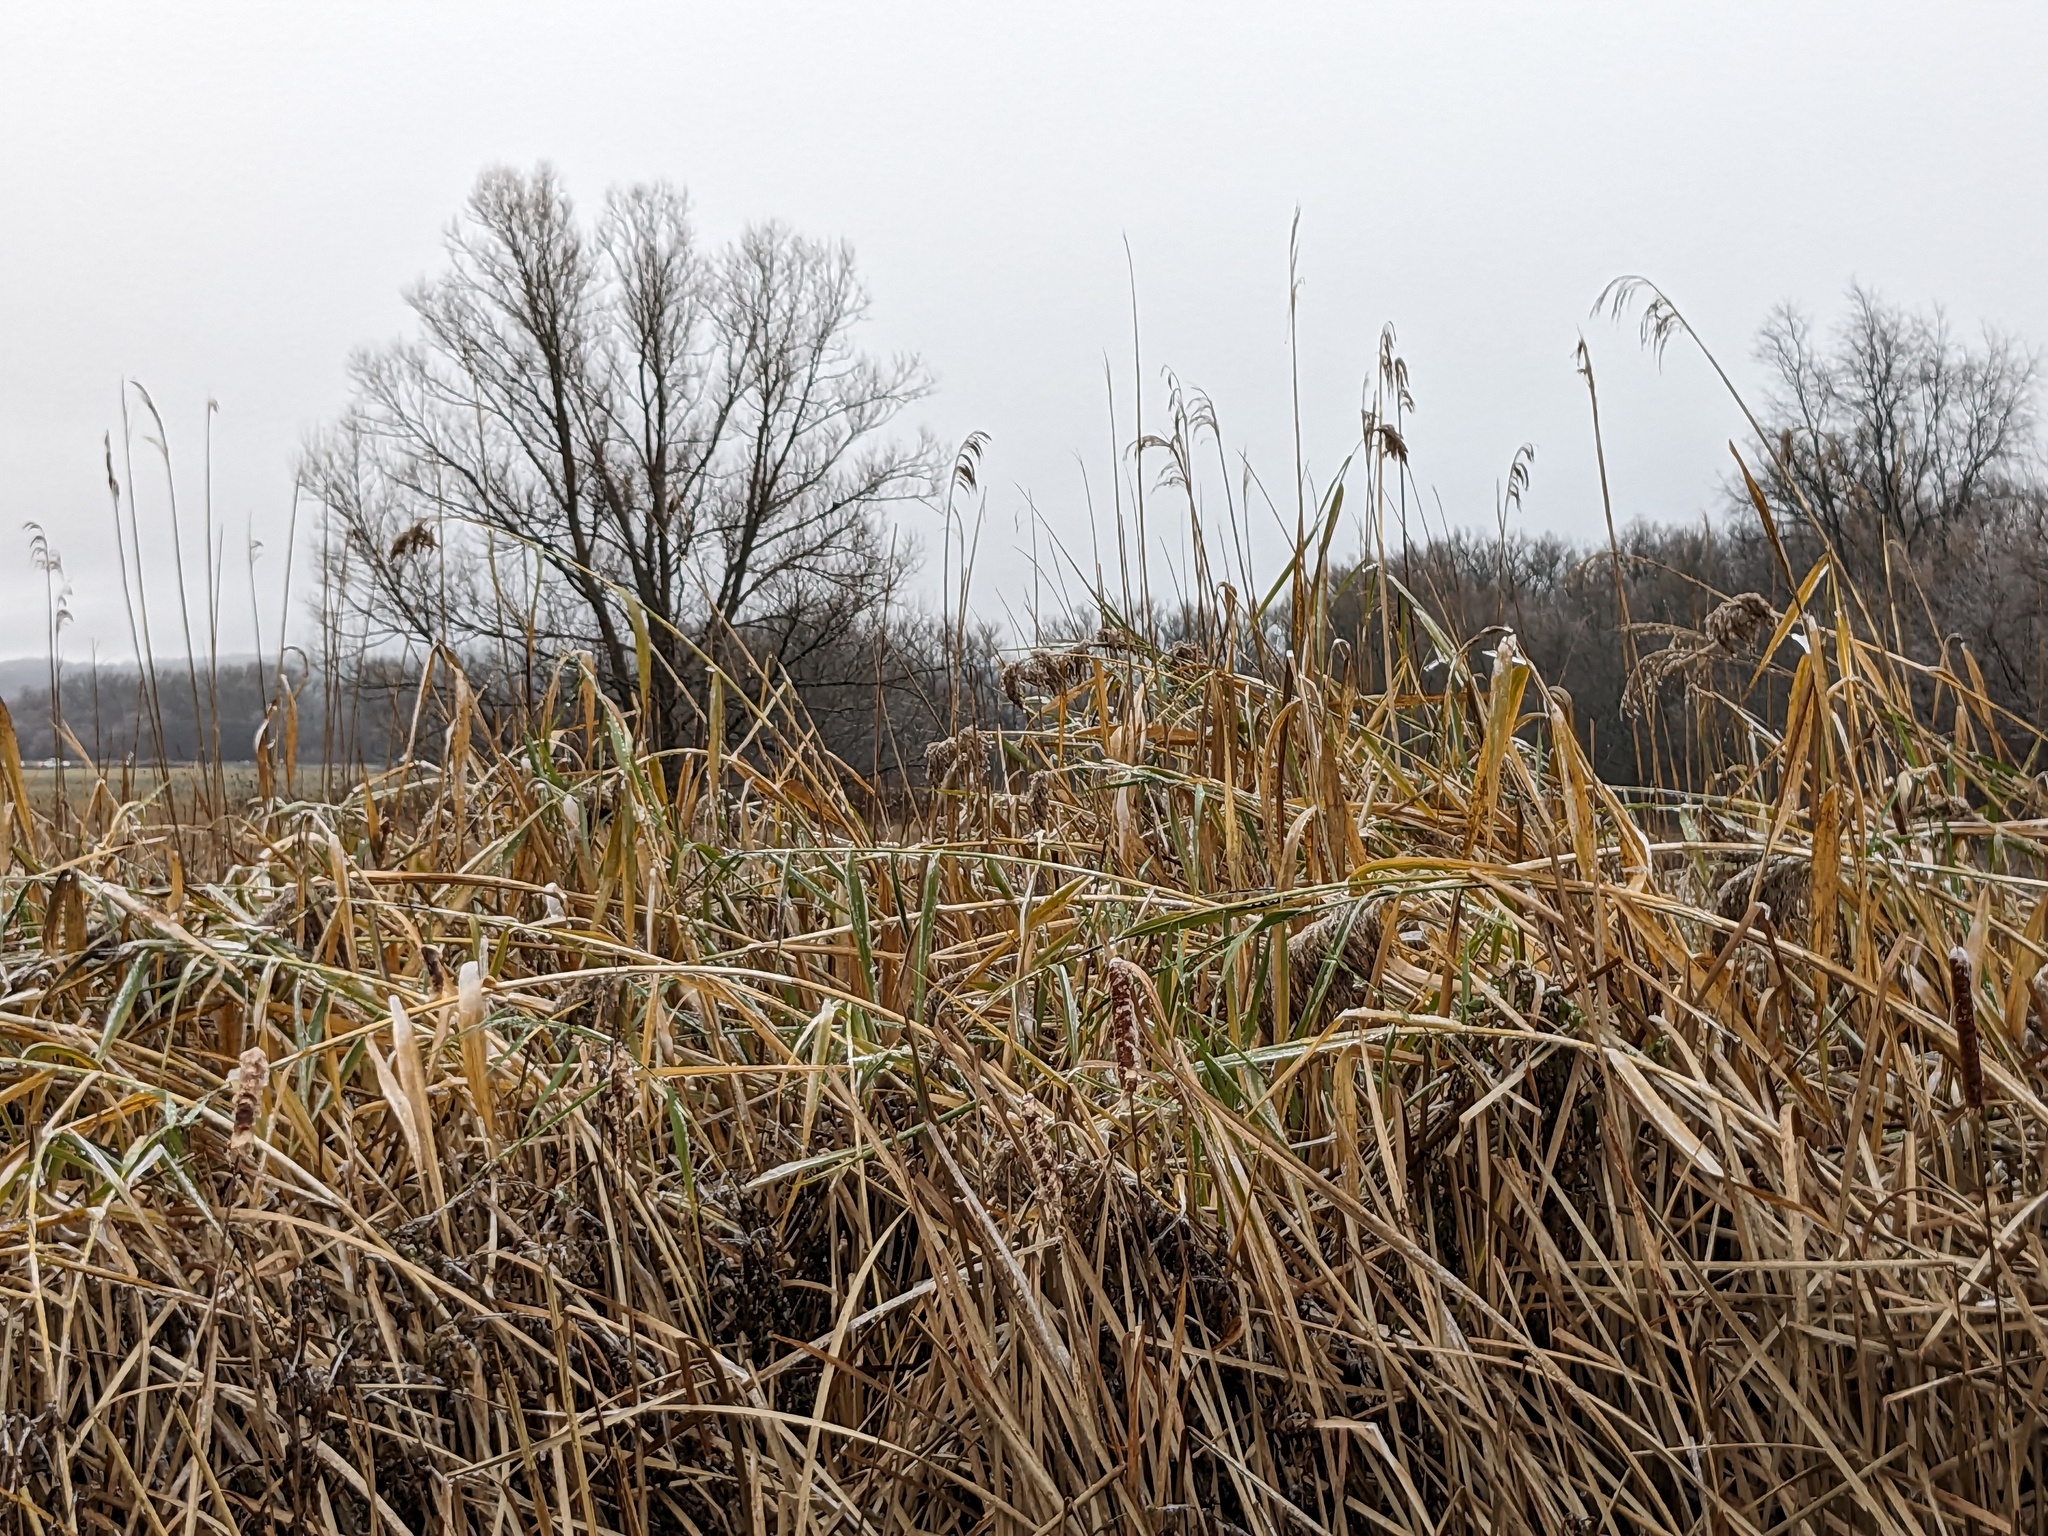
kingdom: Plantae
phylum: Tracheophyta
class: Liliopsida
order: Poales
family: Poaceae
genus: Phragmites
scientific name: Phragmites australis
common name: Common reed
